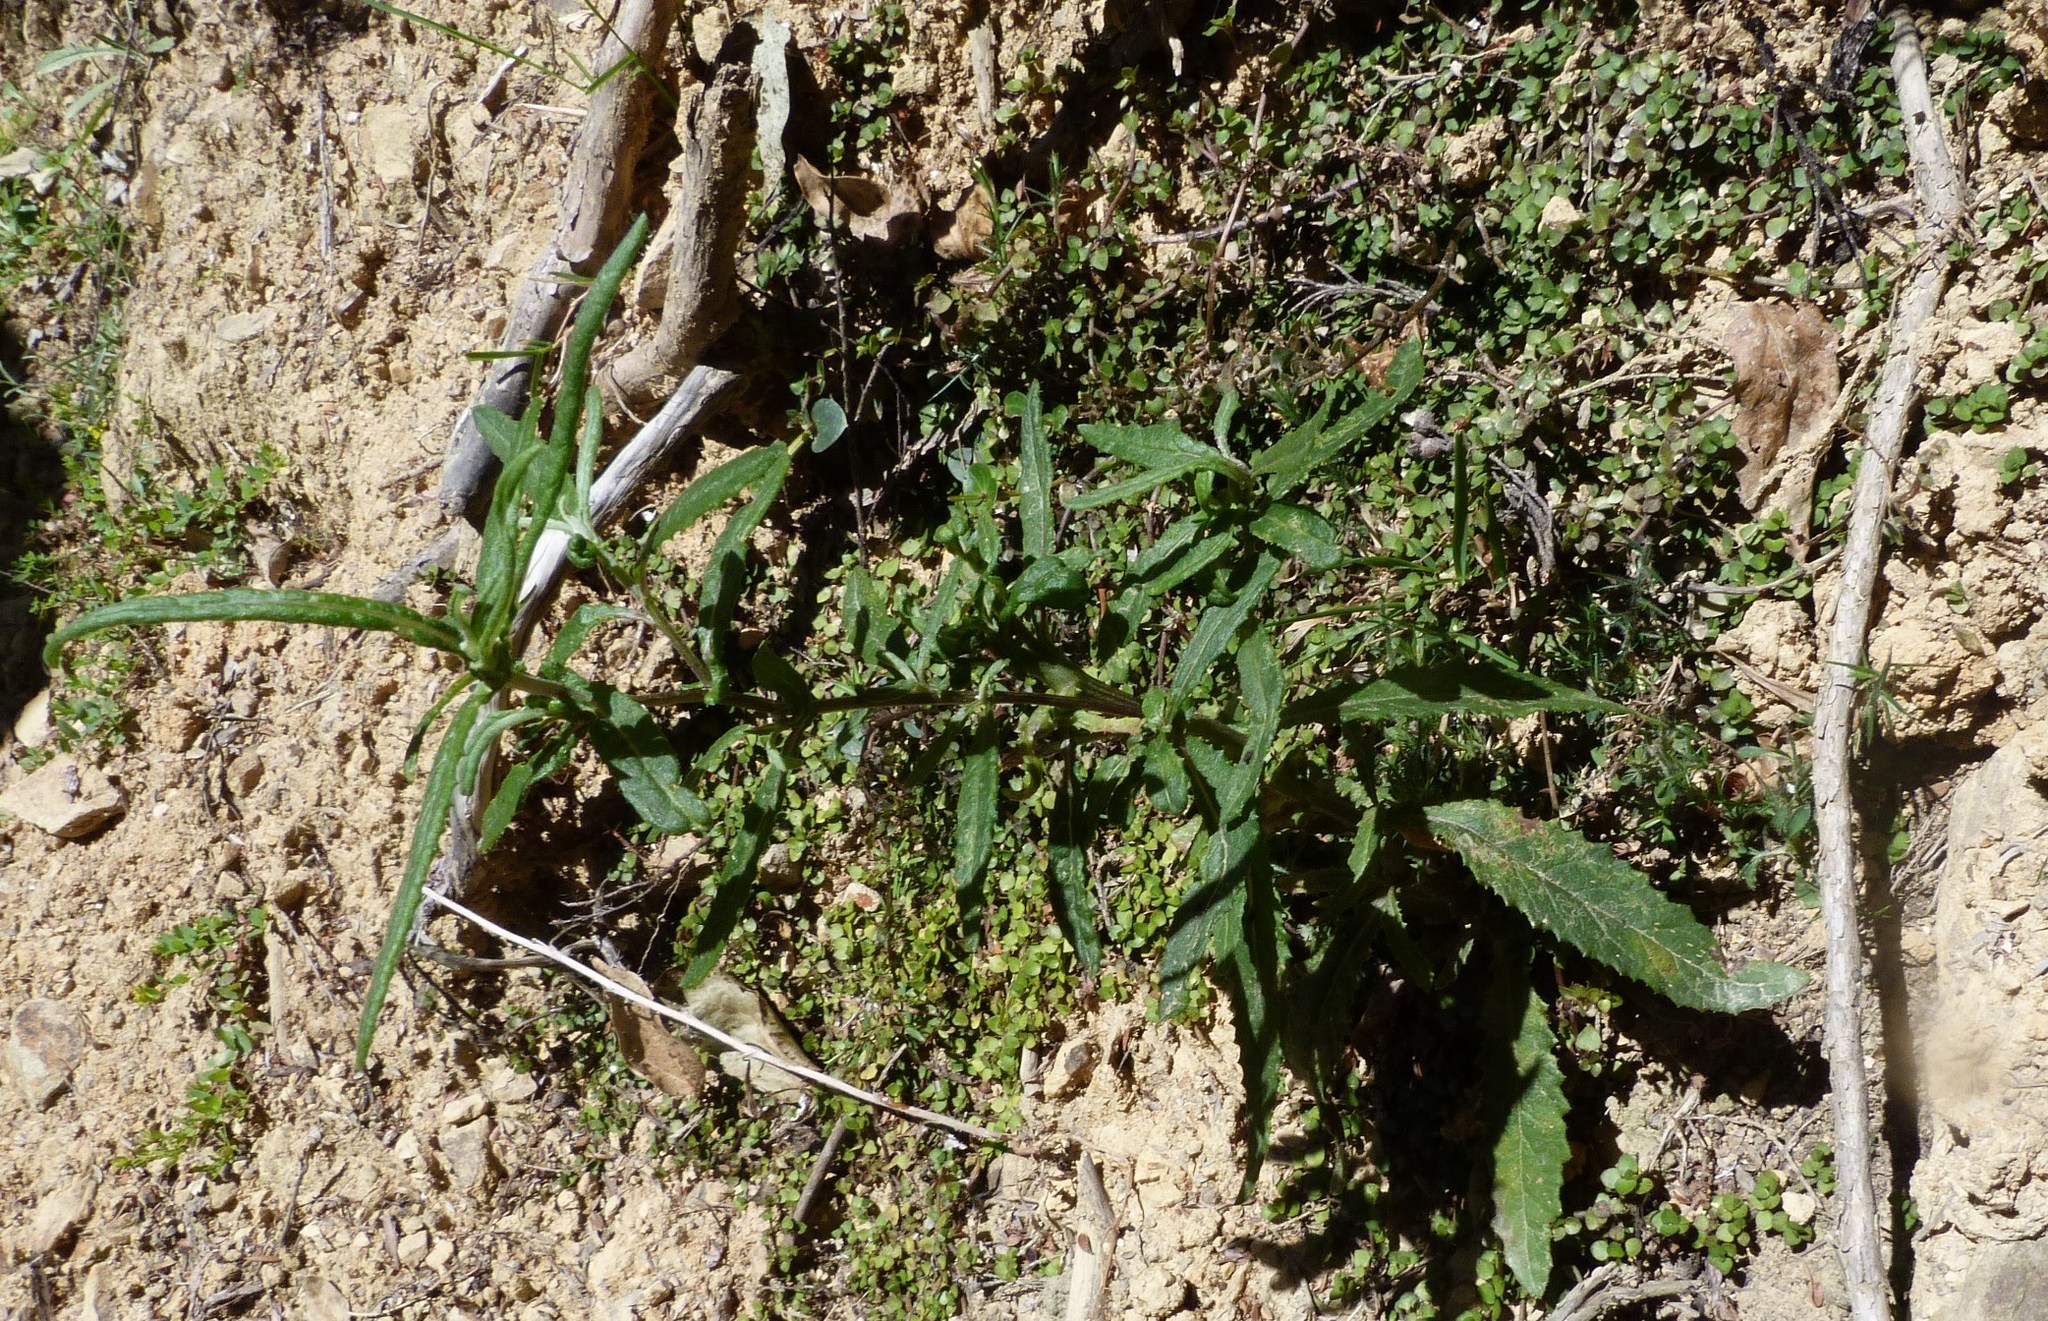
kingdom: Plantae
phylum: Tracheophyta
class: Magnoliopsida
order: Asterales
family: Asteraceae
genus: Senecio
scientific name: Senecio minimus
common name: Toothed fireweed
